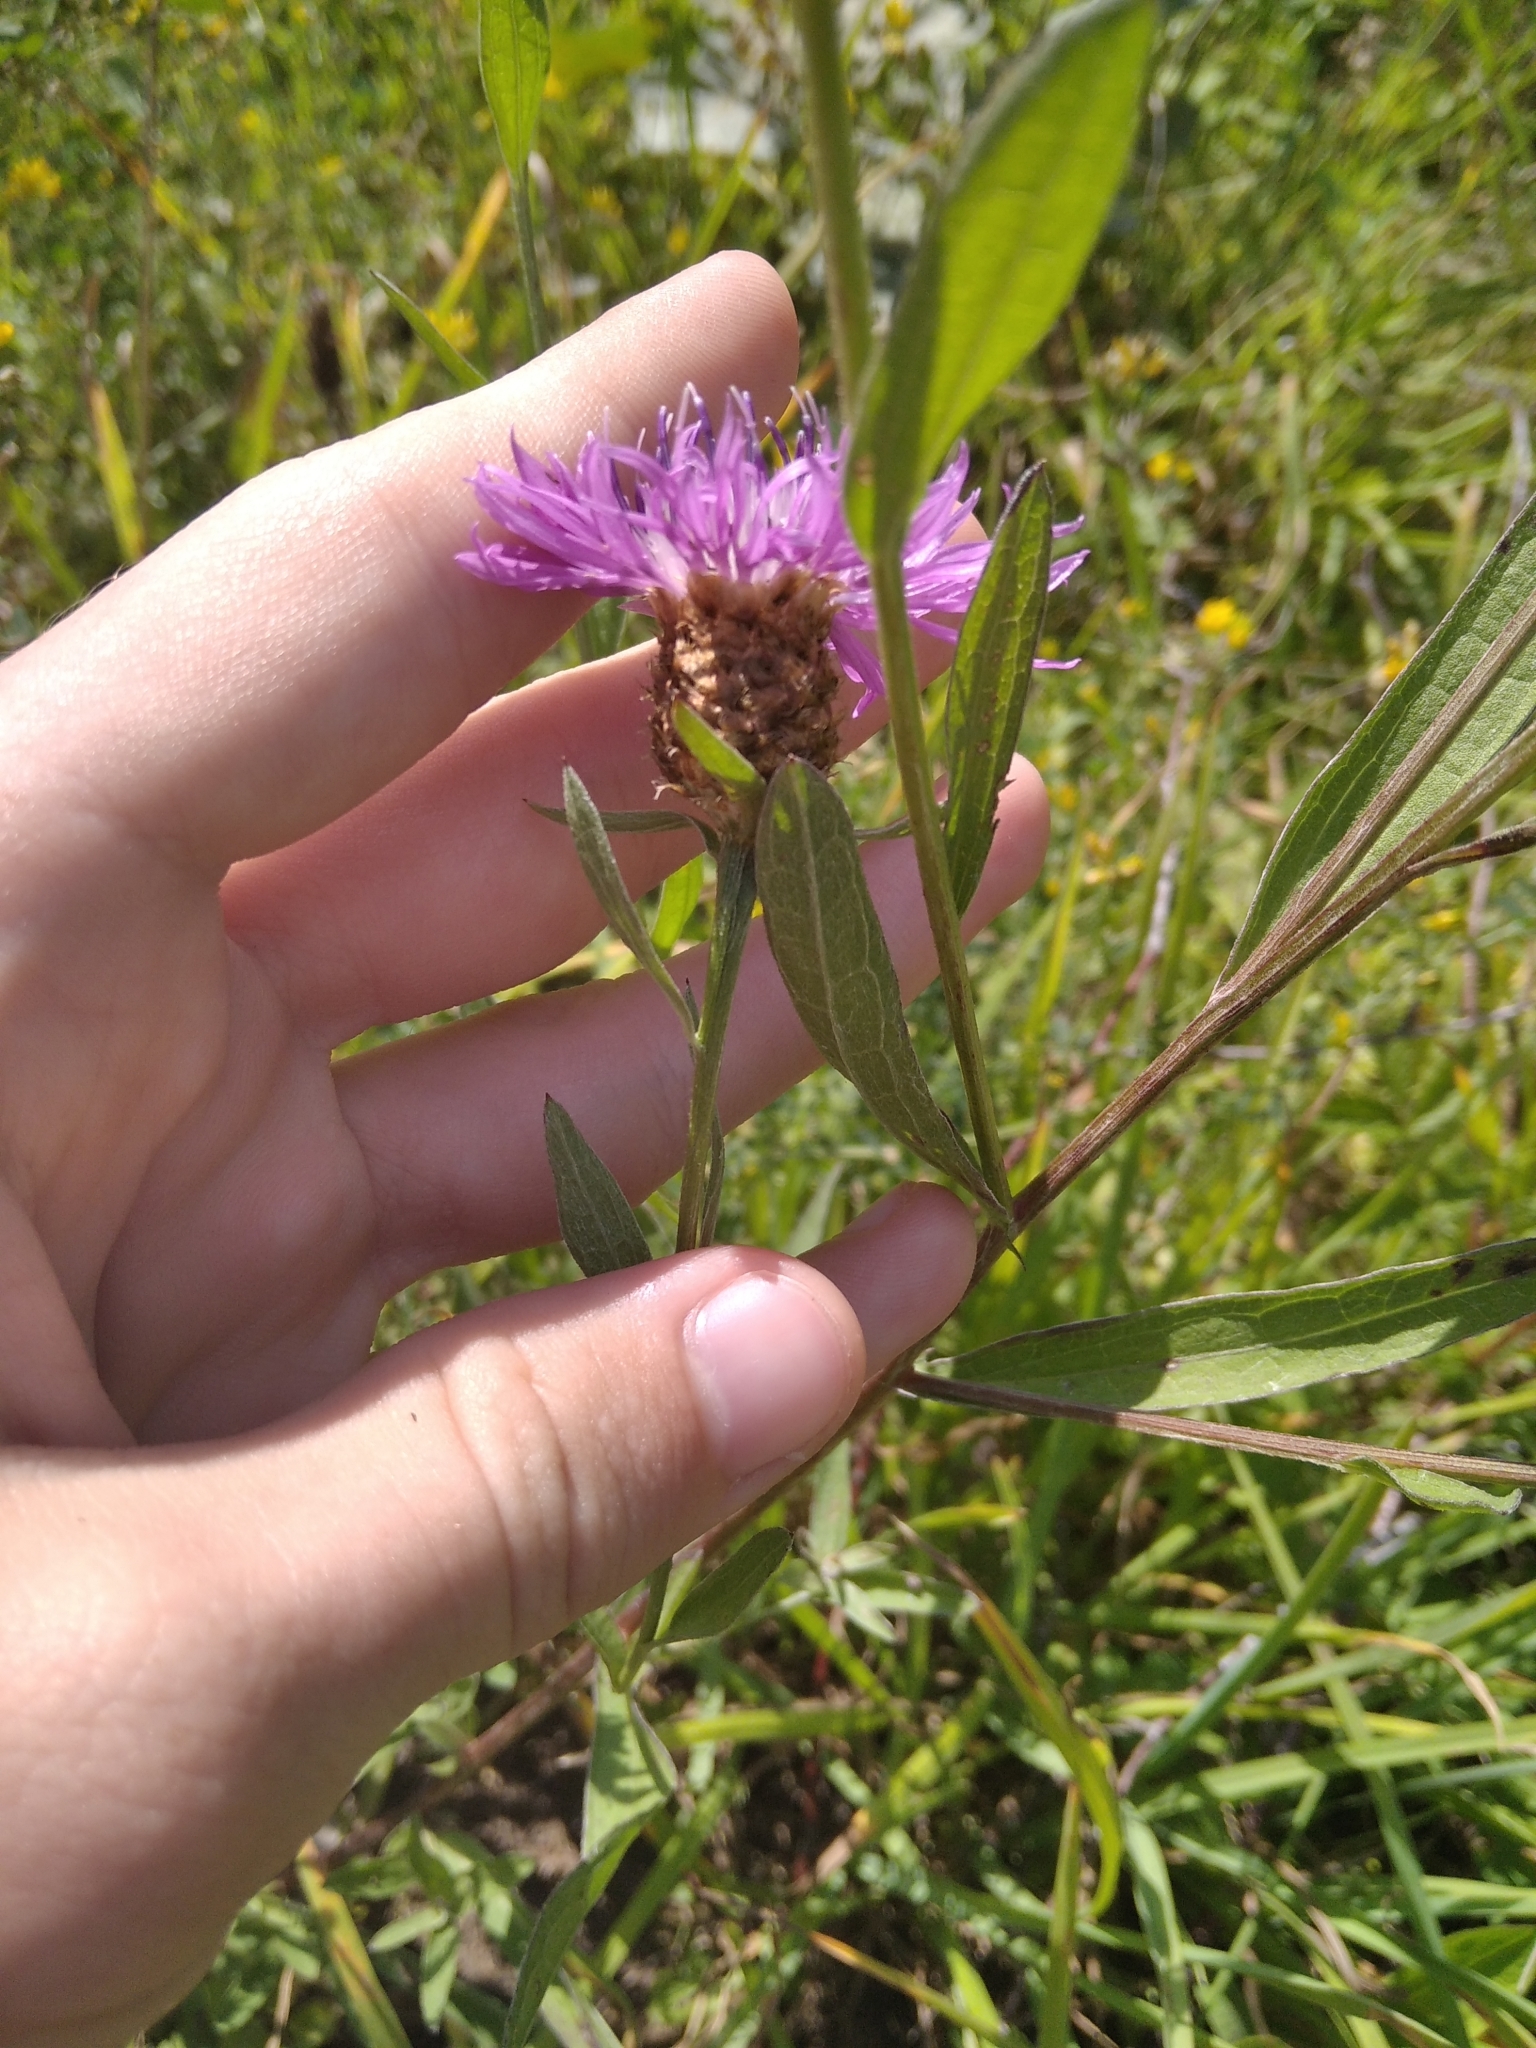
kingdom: Plantae
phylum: Tracheophyta
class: Magnoliopsida
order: Asterales
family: Asteraceae
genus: Centaurea
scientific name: Centaurea jacea
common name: Brown knapweed
